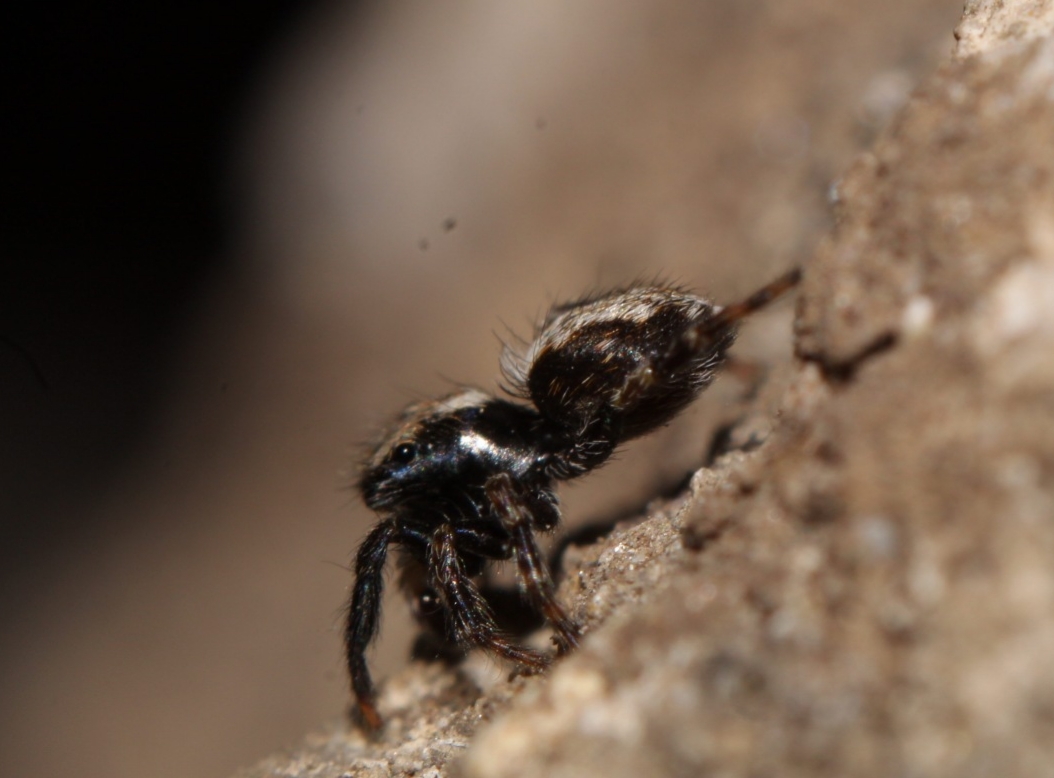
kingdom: Animalia
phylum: Arthropoda
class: Arachnida
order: Araneae
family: Salticidae
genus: Pseudeuophrys
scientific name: Pseudeuophrys lanigera
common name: Jumping spider
